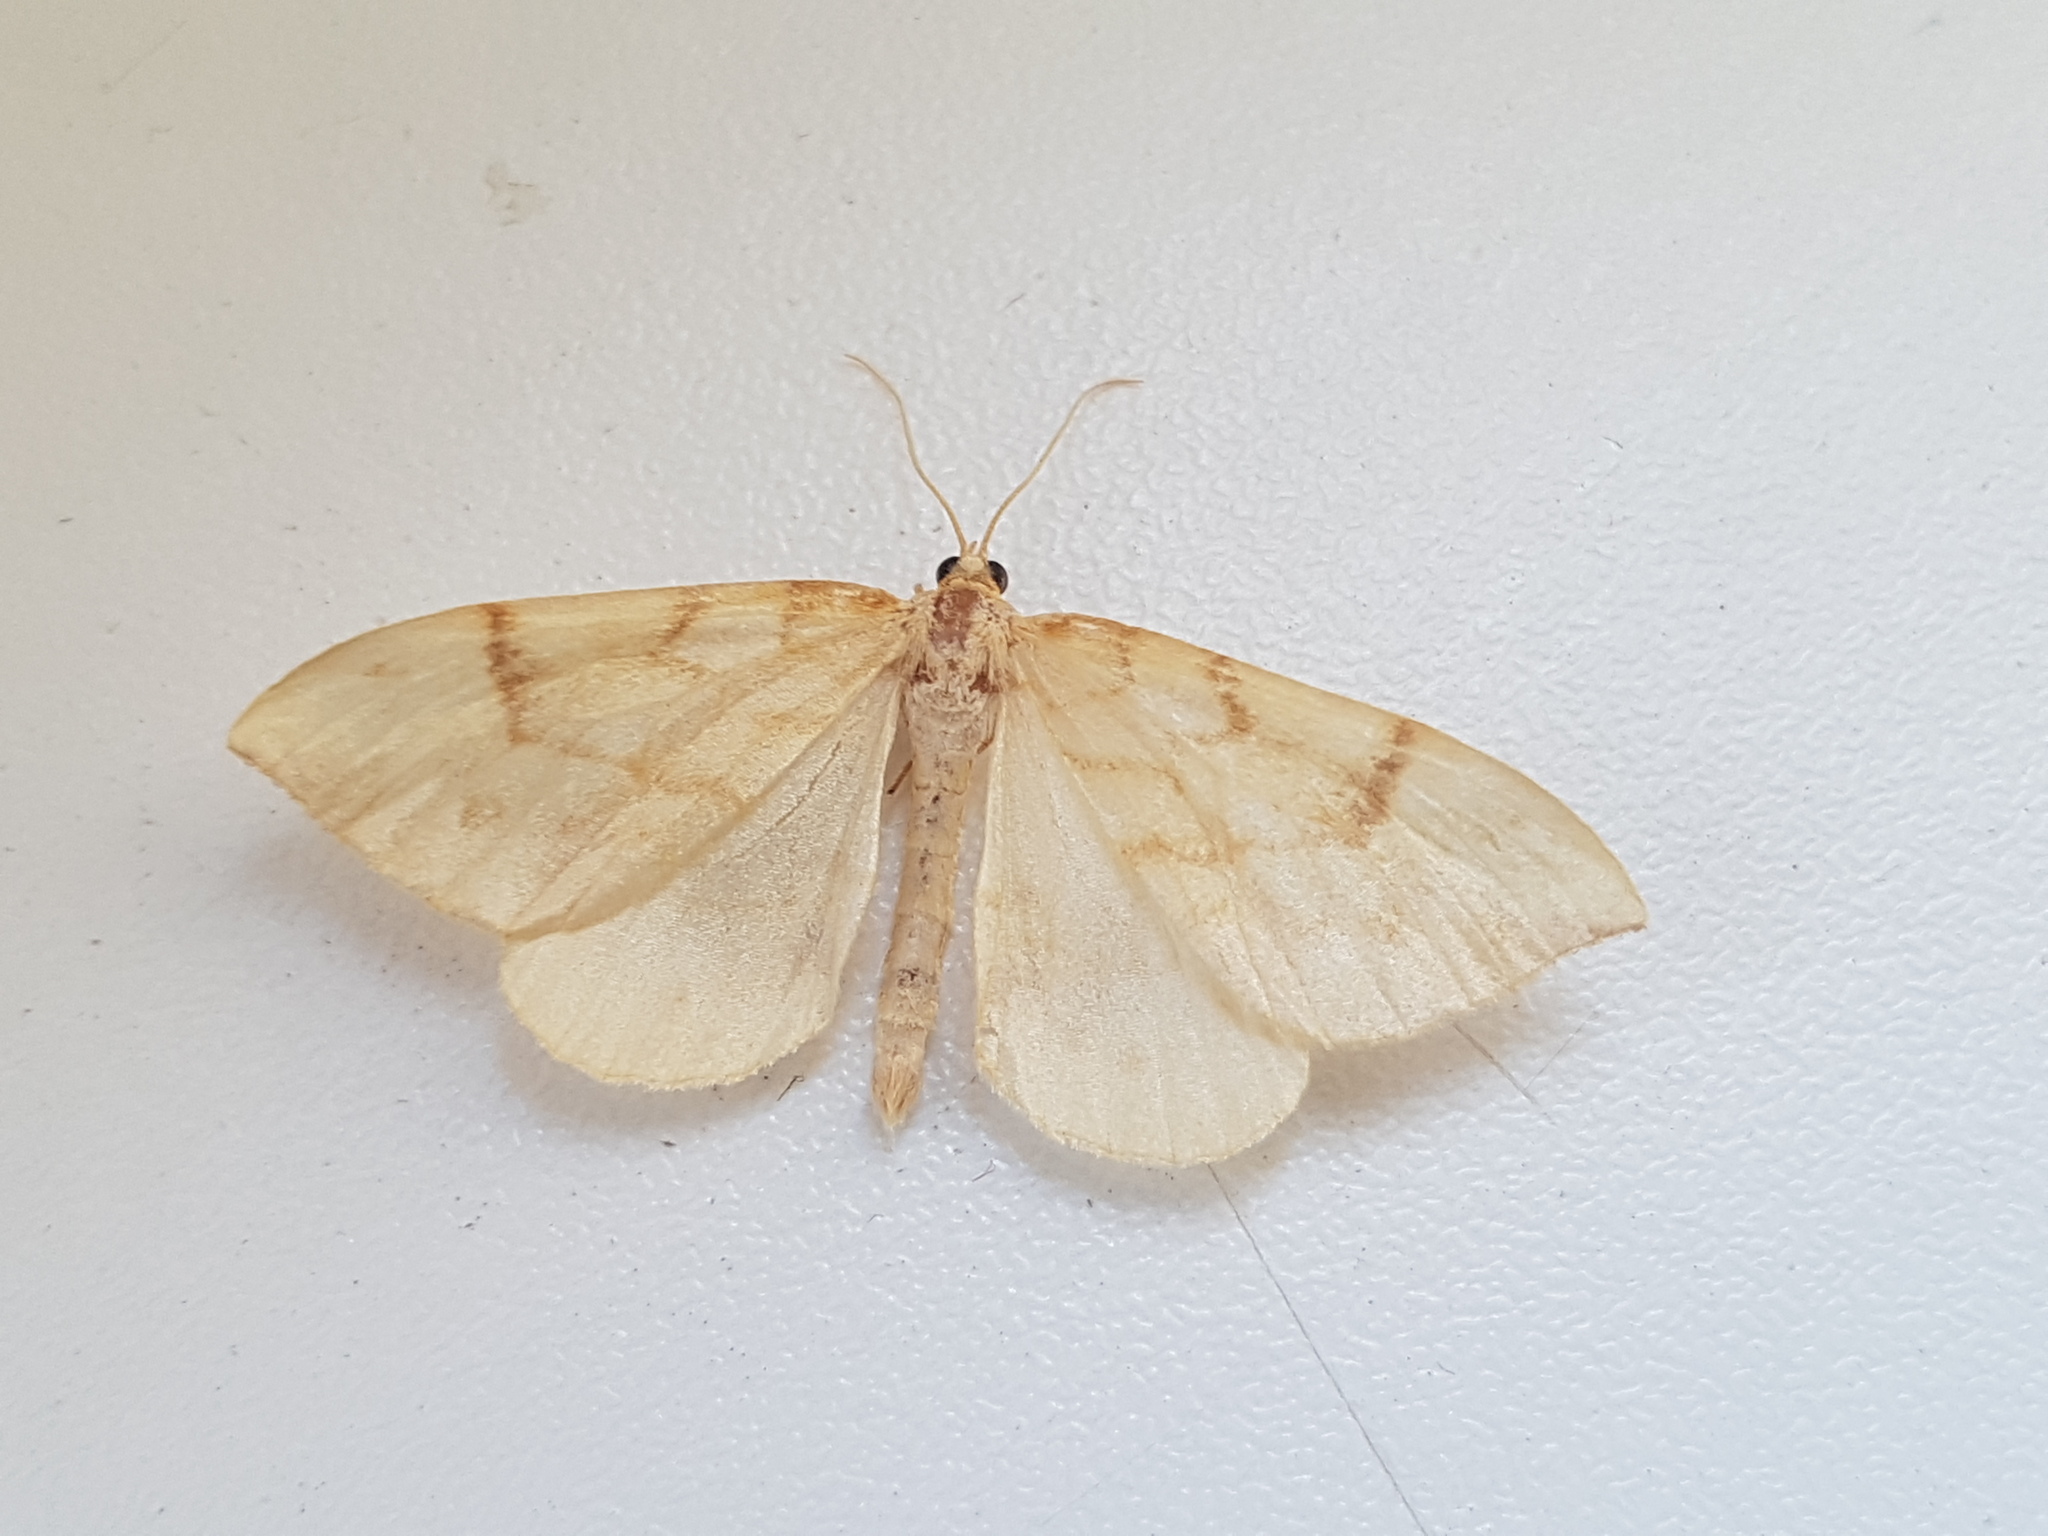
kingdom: Animalia
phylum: Arthropoda
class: Insecta
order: Lepidoptera
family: Geometridae
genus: Eulithis
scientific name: Eulithis pyraliata
